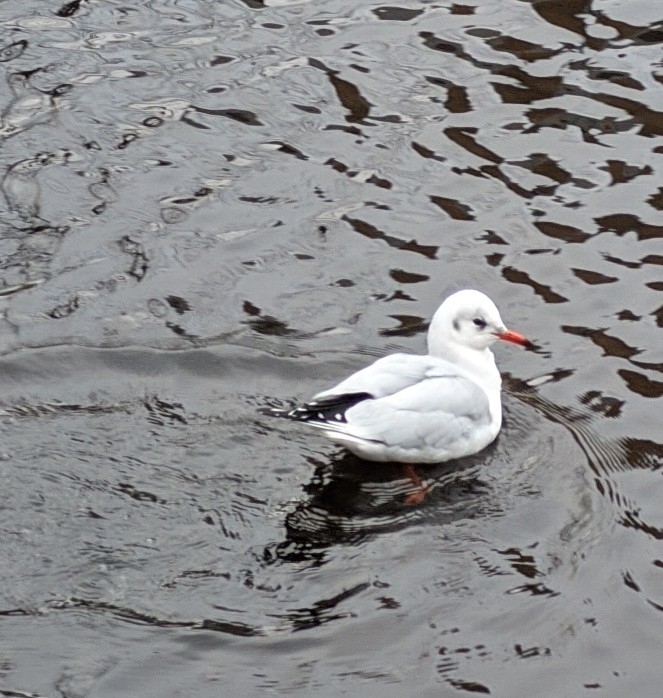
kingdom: Animalia
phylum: Chordata
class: Aves
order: Charadriiformes
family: Laridae
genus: Chroicocephalus
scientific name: Chroicocephalus ridibundus
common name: Black-headed gull
